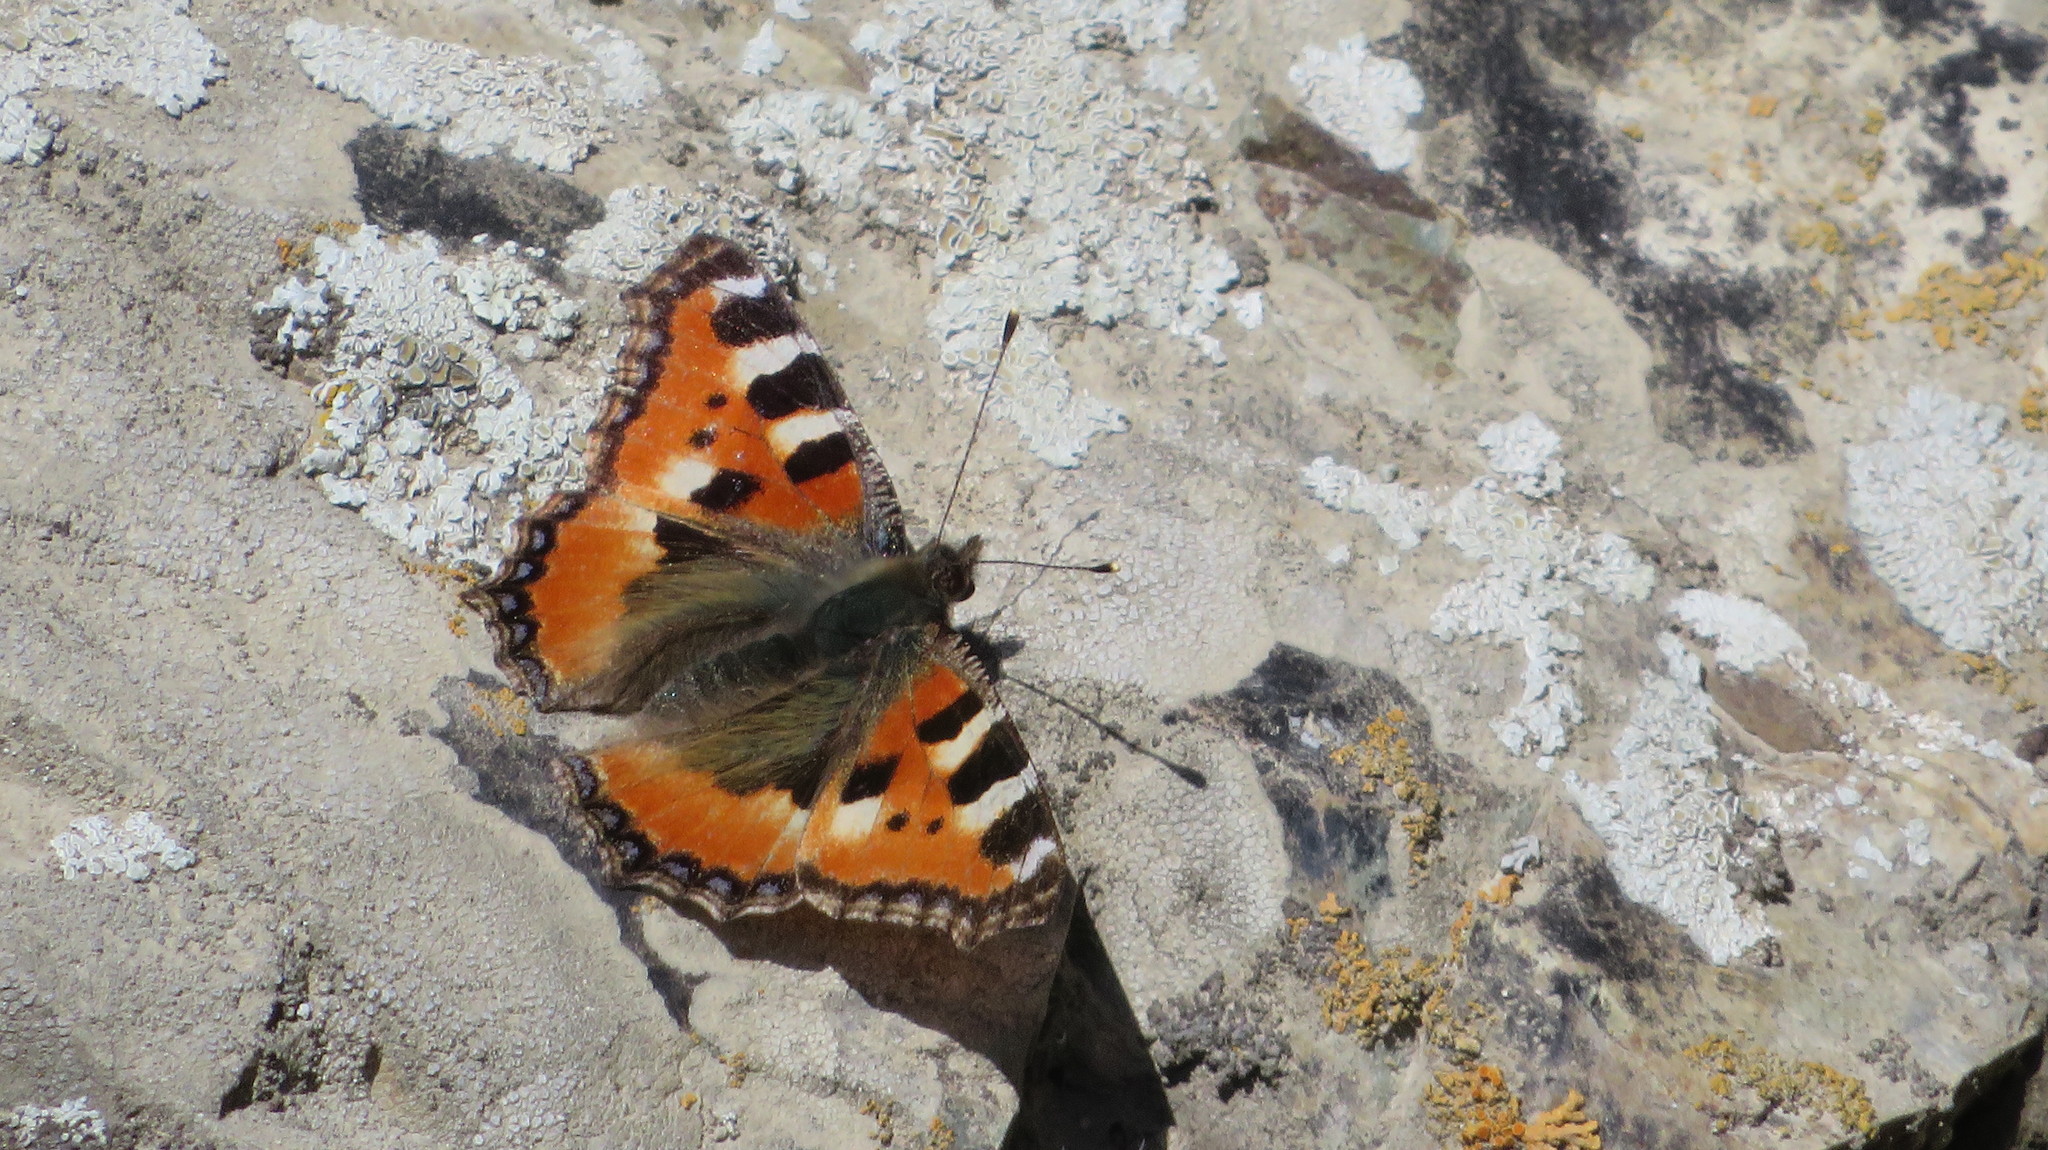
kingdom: Animalia
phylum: Arthropoda
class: Insecta
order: Lepidoptera
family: Nymphalidae
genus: Aglais
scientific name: Aglais urticae
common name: Small tortoiseshell
